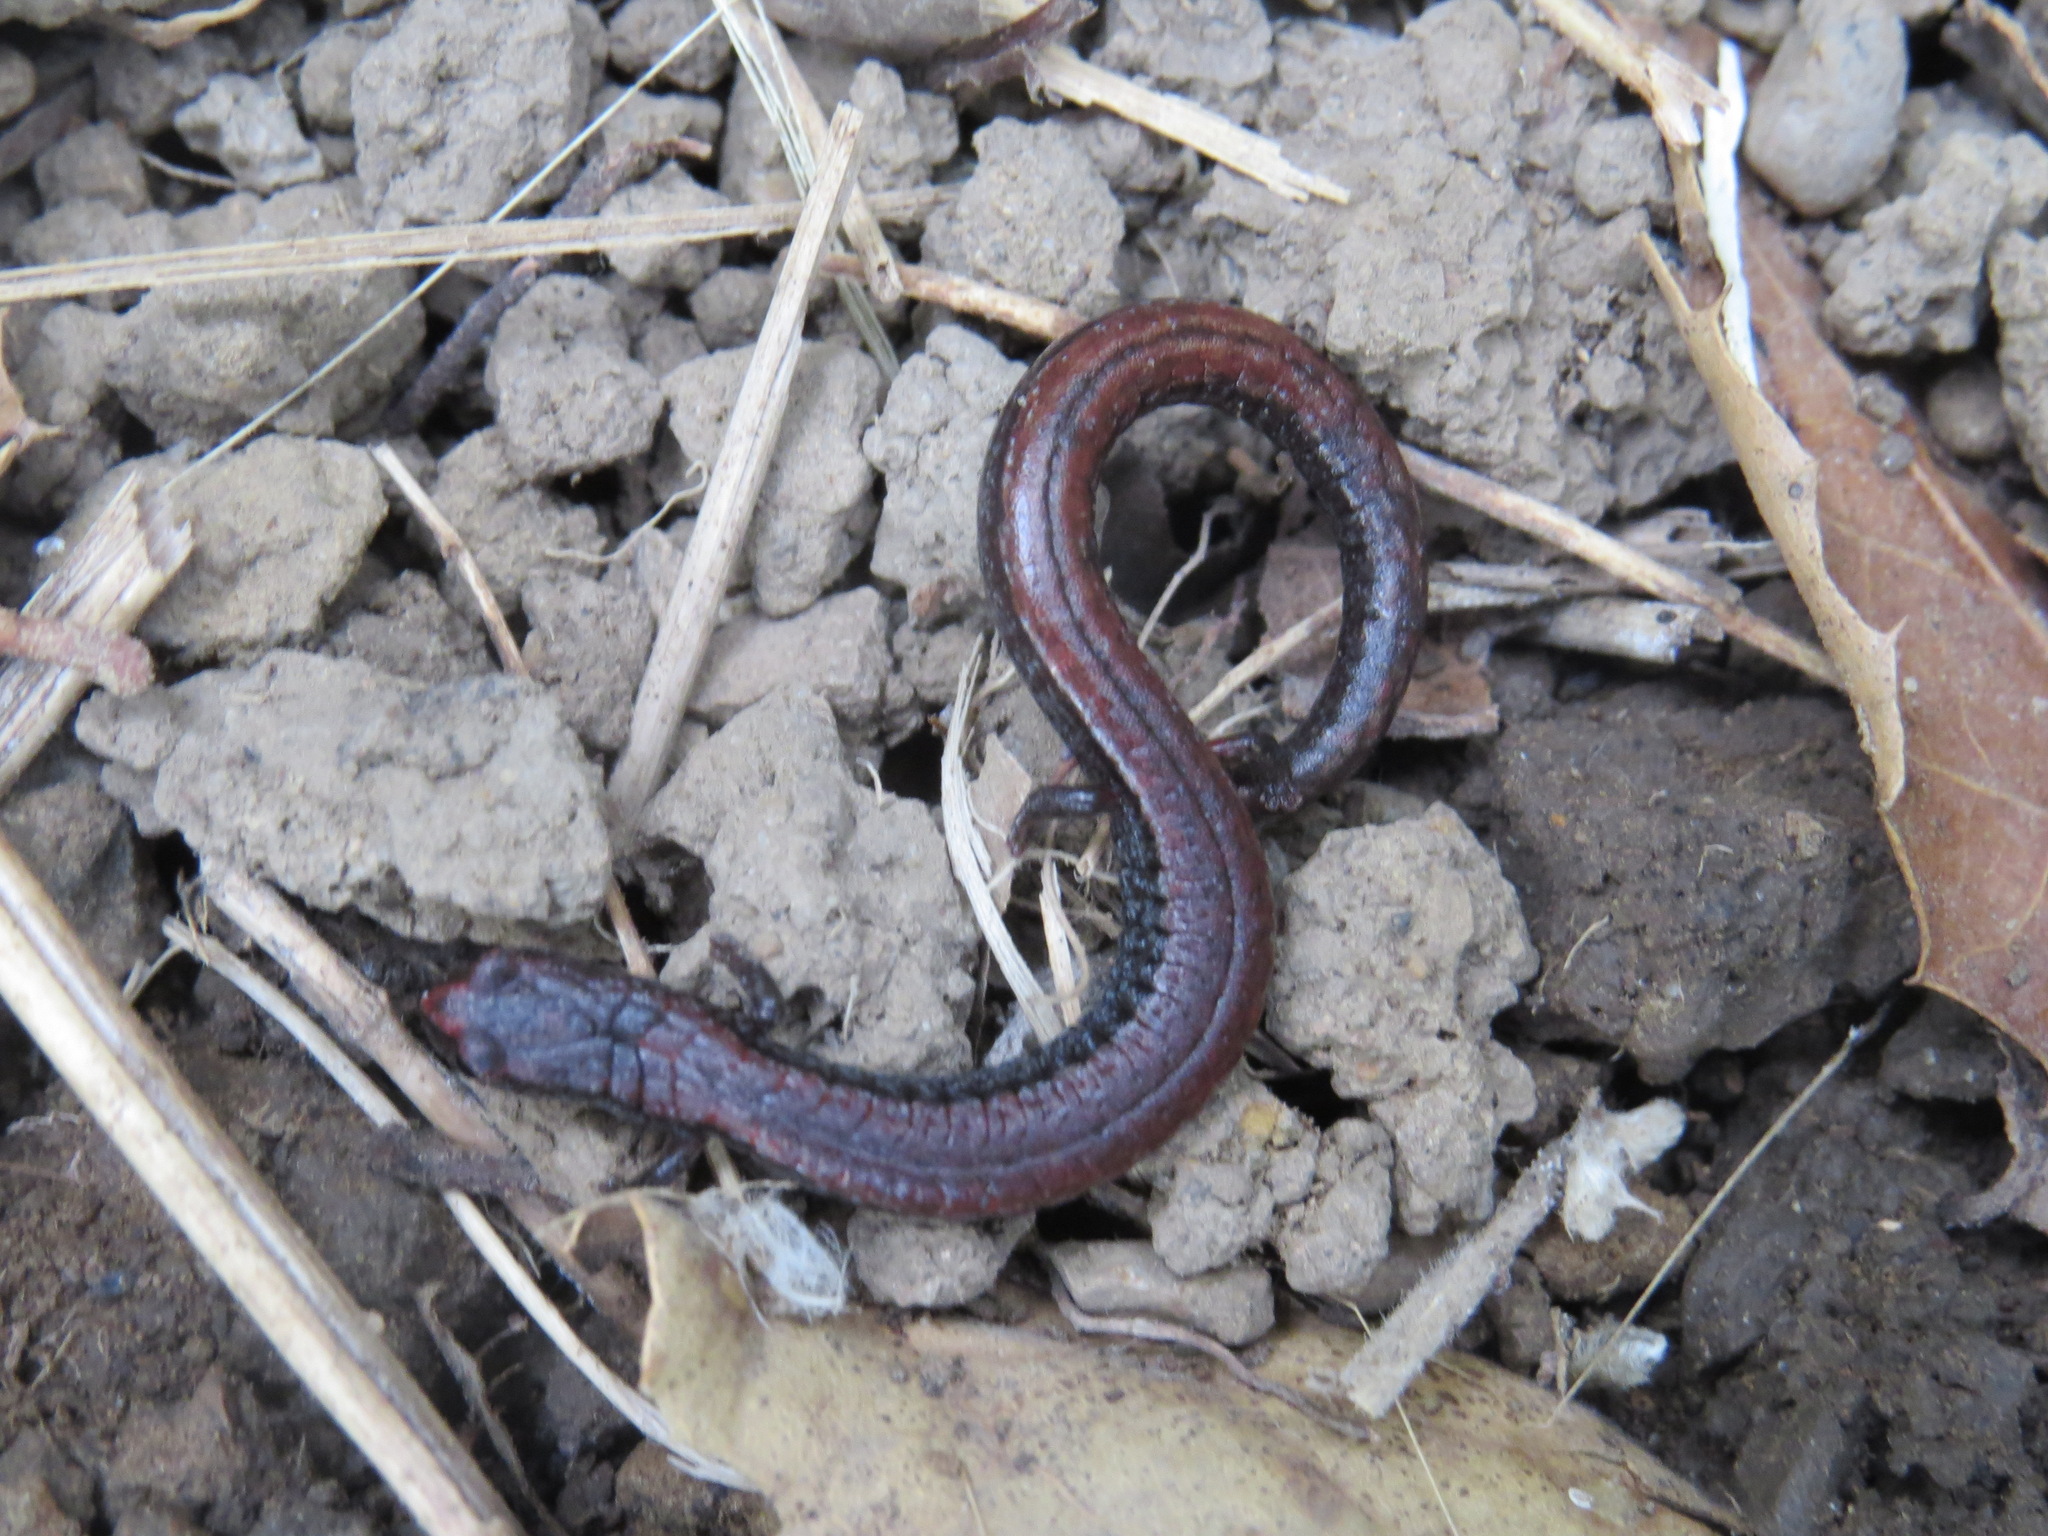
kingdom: Animalia
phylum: Chordata
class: Amphibia
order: Caudata
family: Plethodontidae
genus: Batrachoseps
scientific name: Batrachoseps attenuatus
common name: California slender salamander
